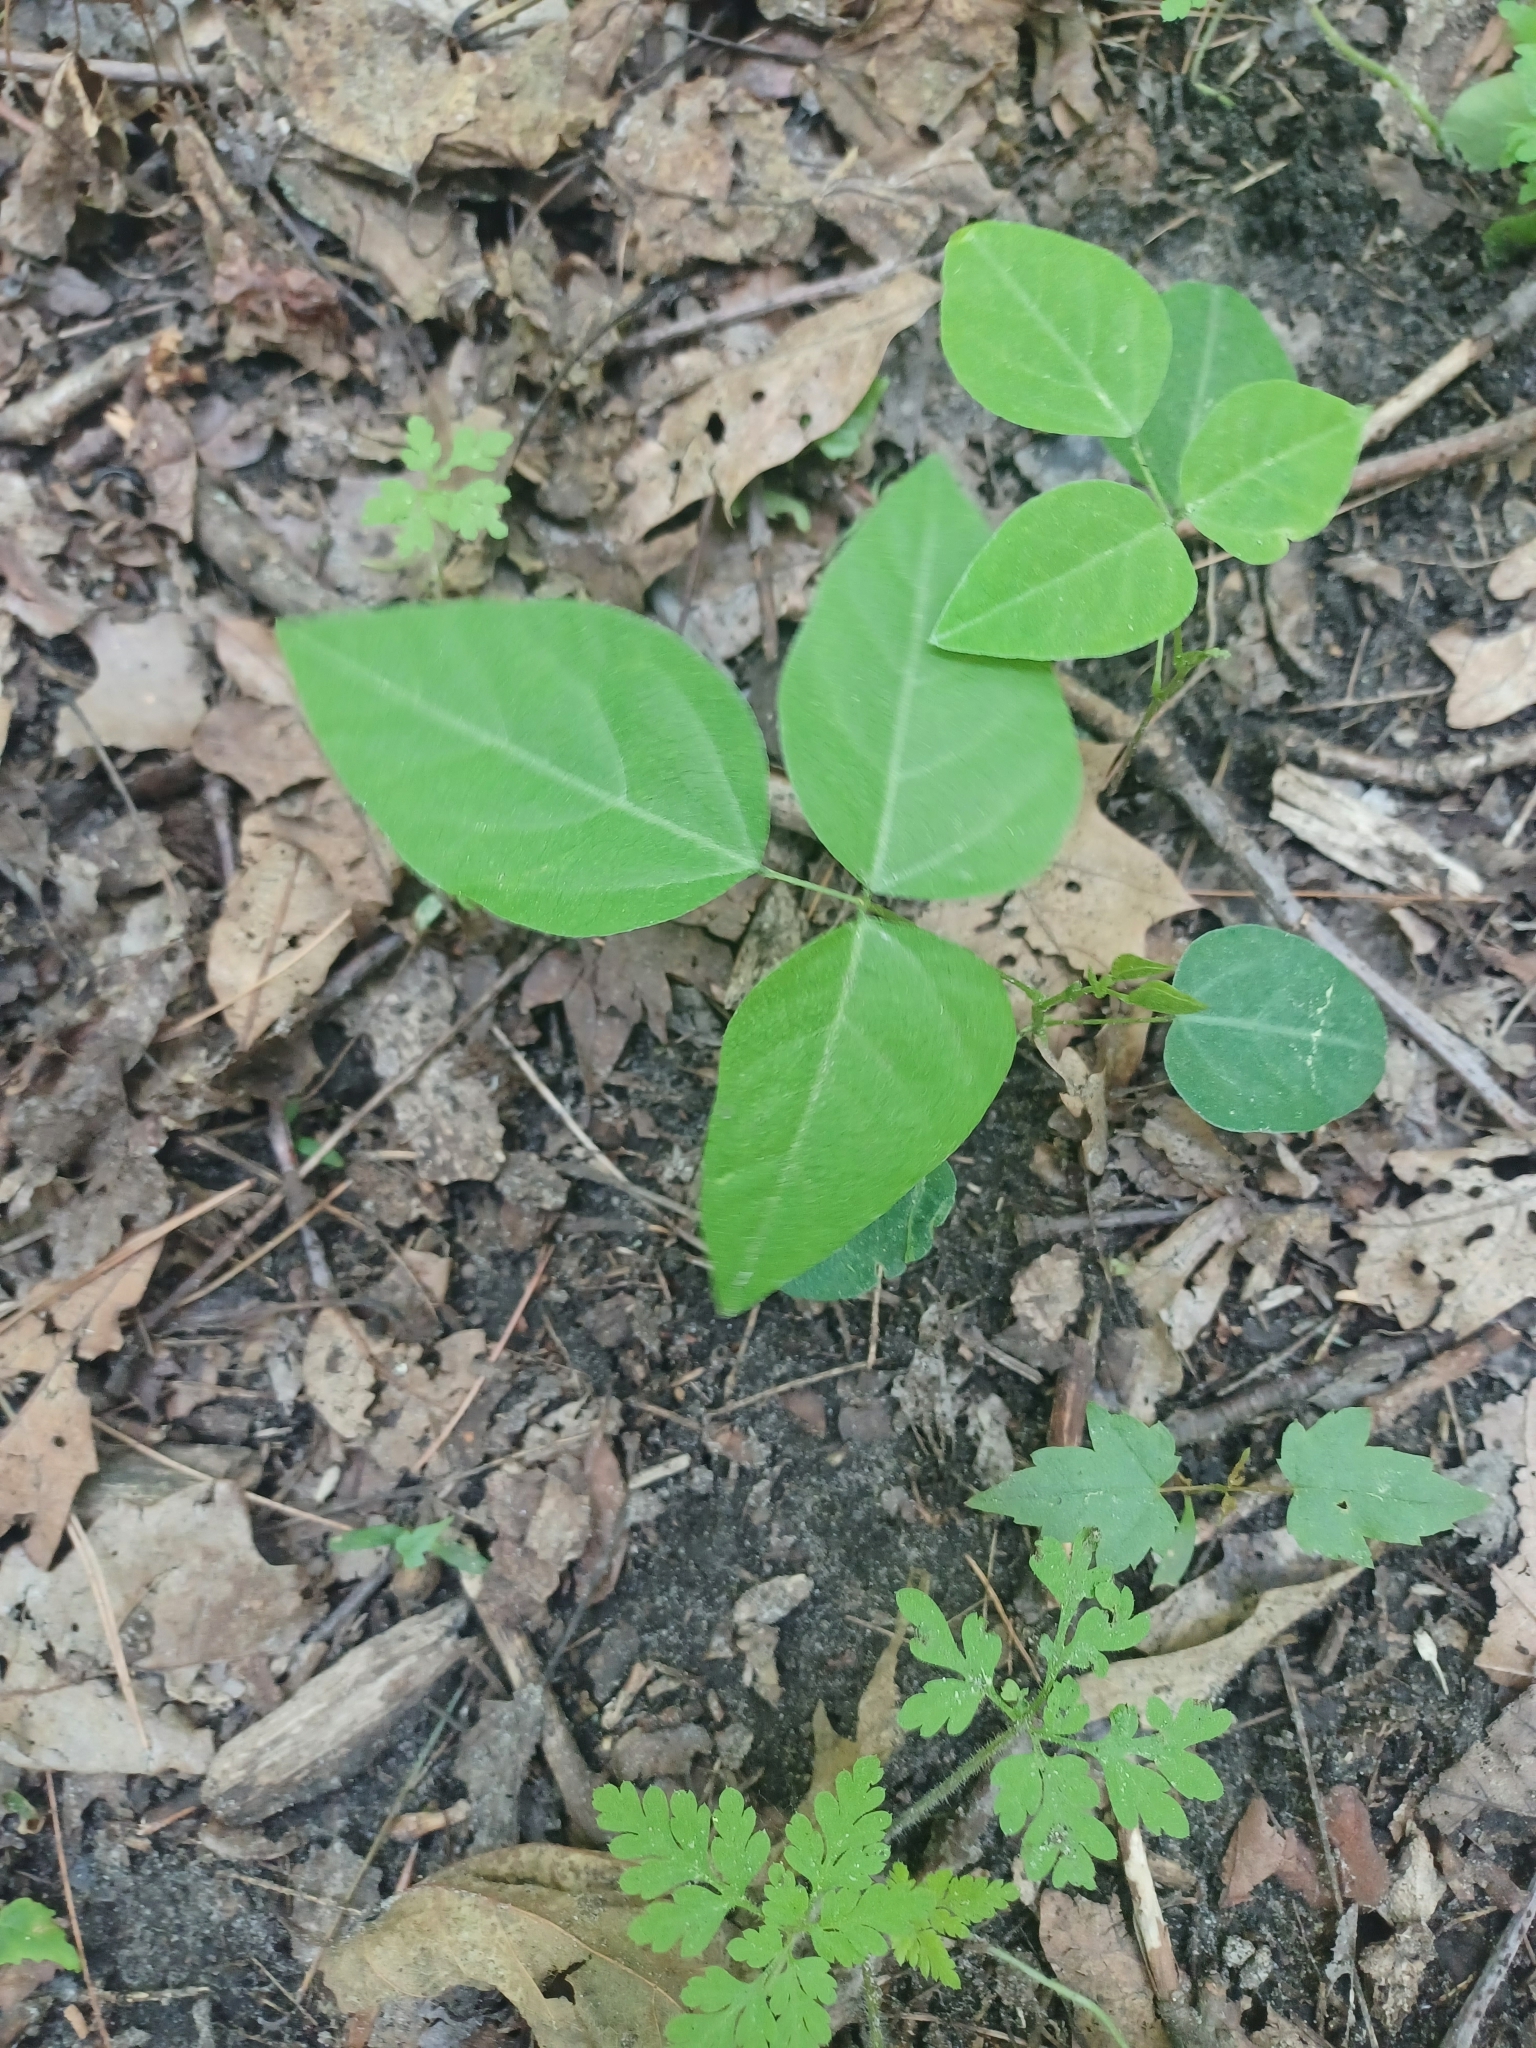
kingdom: Plantae
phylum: Tracheophyta
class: Magnoliopsida
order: Fabales
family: Fabaceae
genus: Amphicarpaea
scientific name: Amphicarpaea bracteata
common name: American hog peanut
